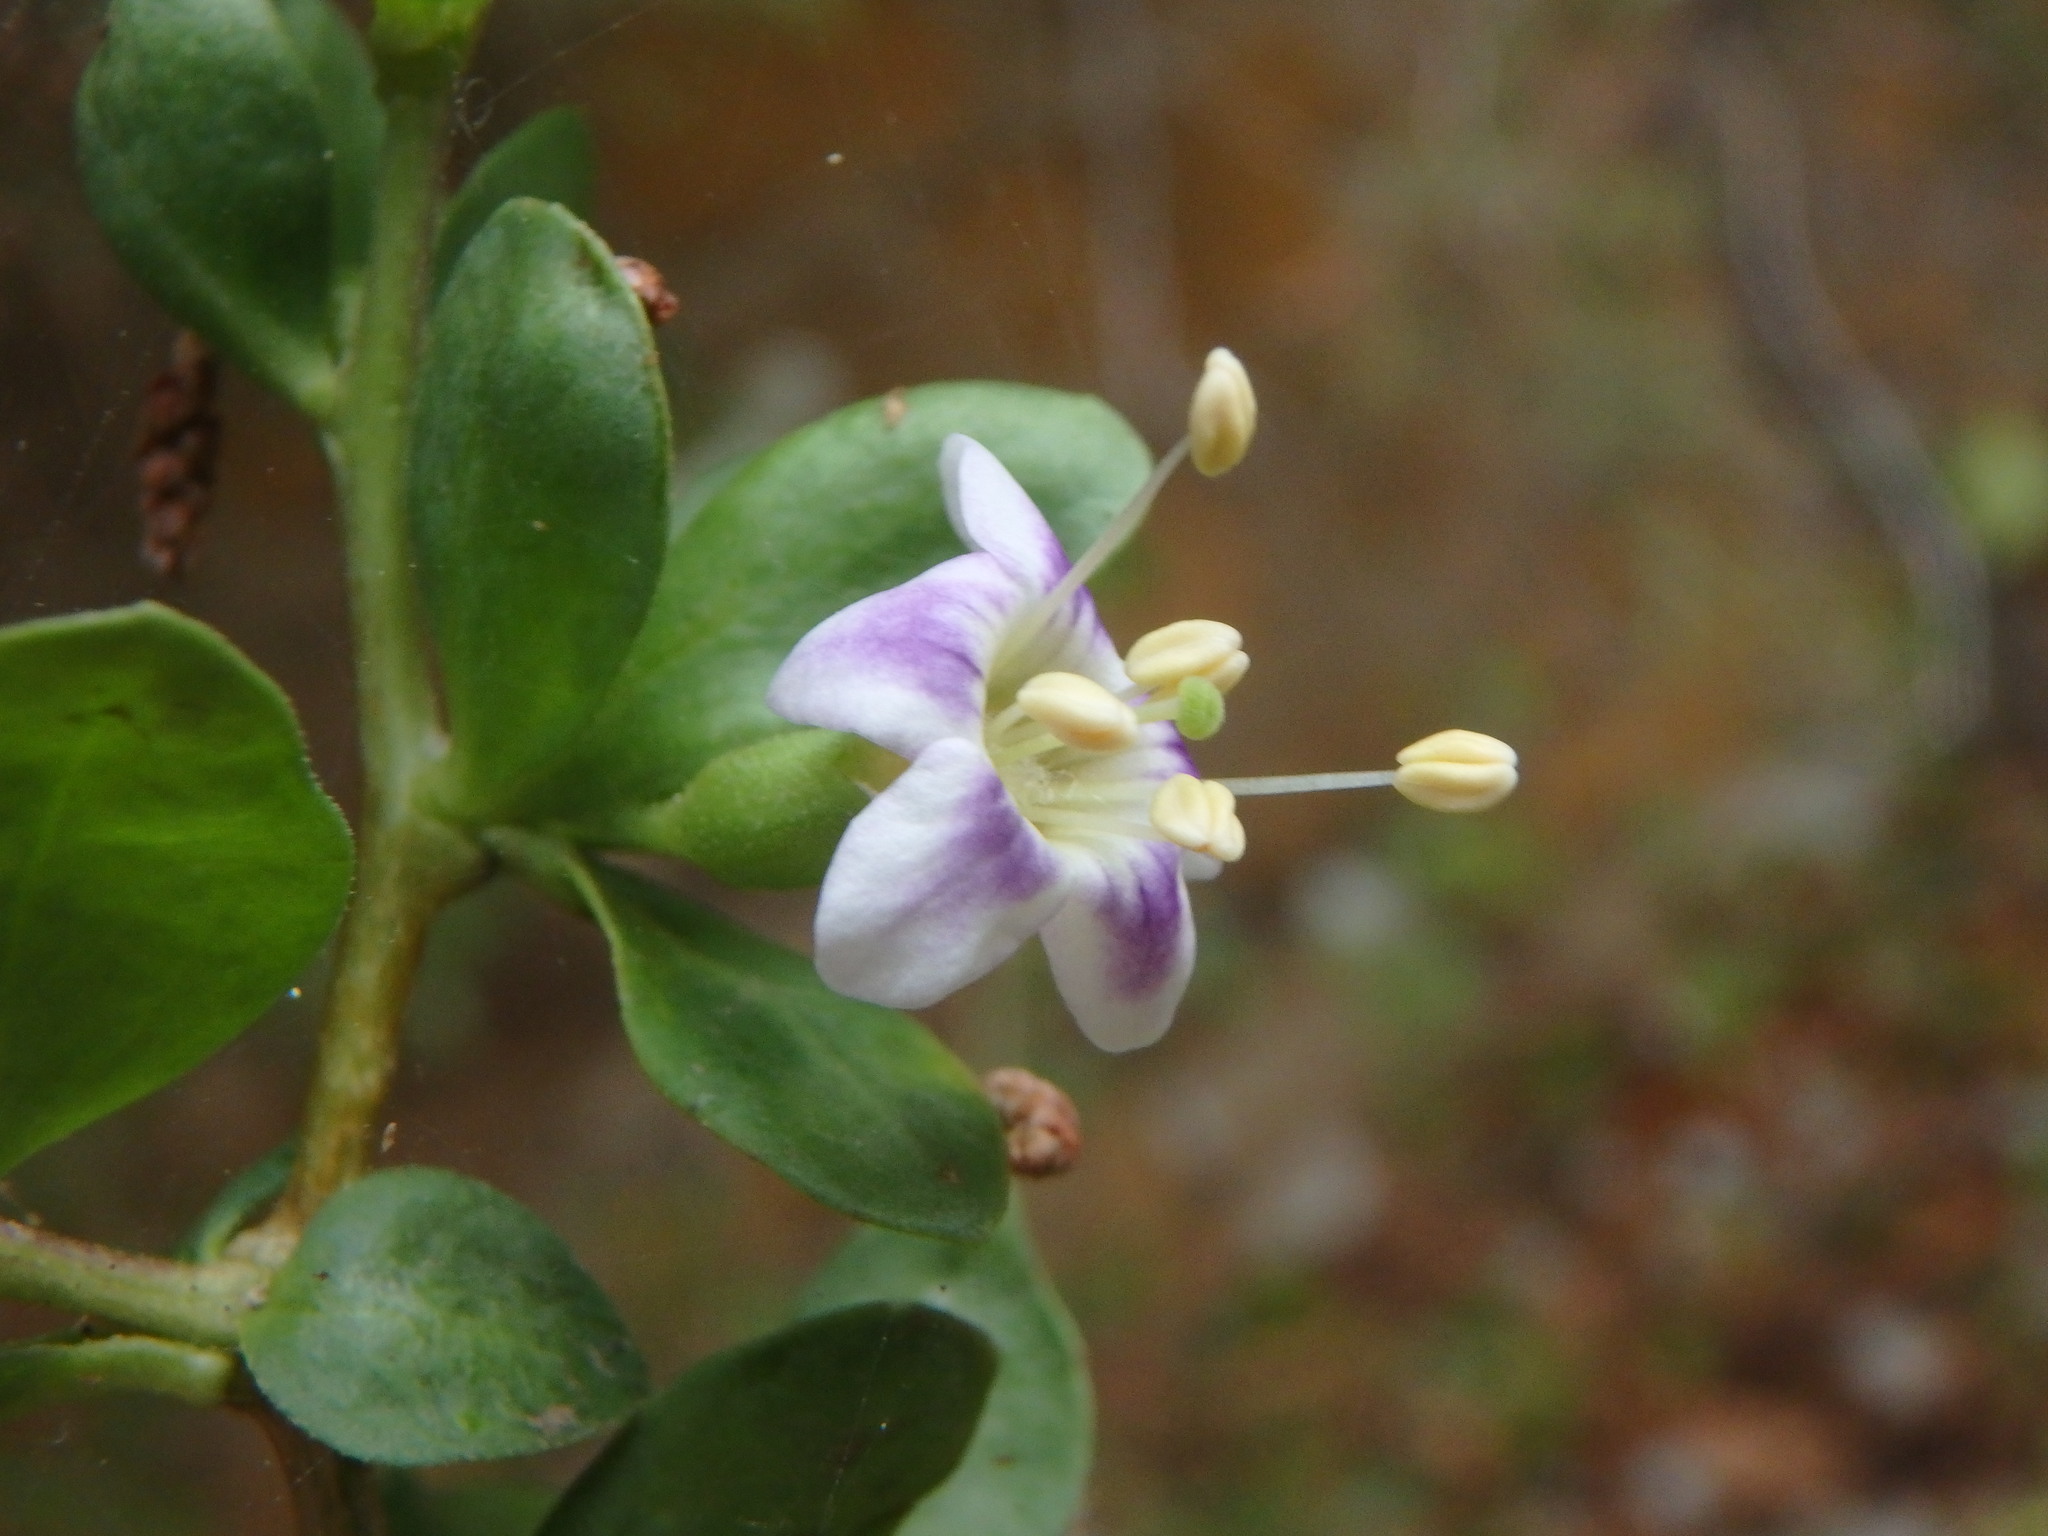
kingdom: Plantae
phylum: Tracheophyta
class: Magnoliopsida
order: Solanales
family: Solanaceae
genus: Lycium
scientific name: Lycium ferocissimum
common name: African boxthorn
